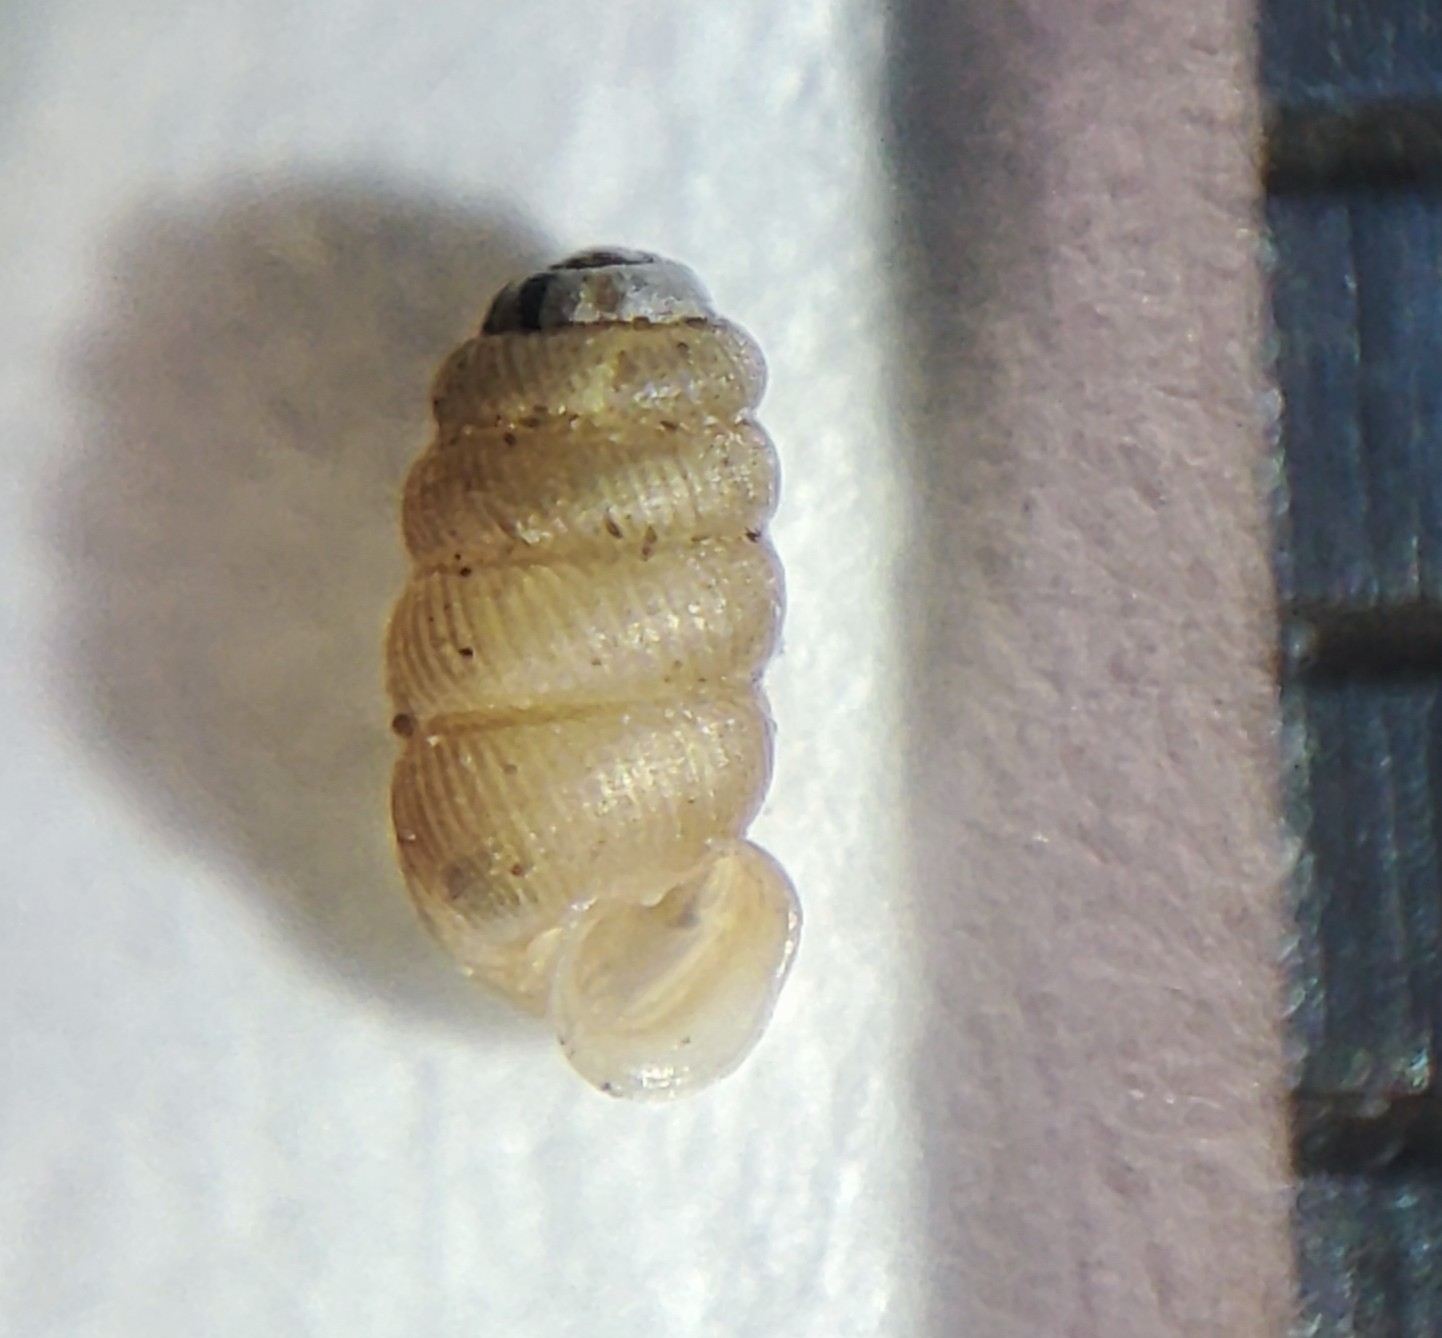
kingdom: Animalia
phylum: Mollusca
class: Gastropoda
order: Stylommatophora
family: Truncatellinidae
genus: Truncatellina
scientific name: Truncatellina costulata
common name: Bulging whorl snail
